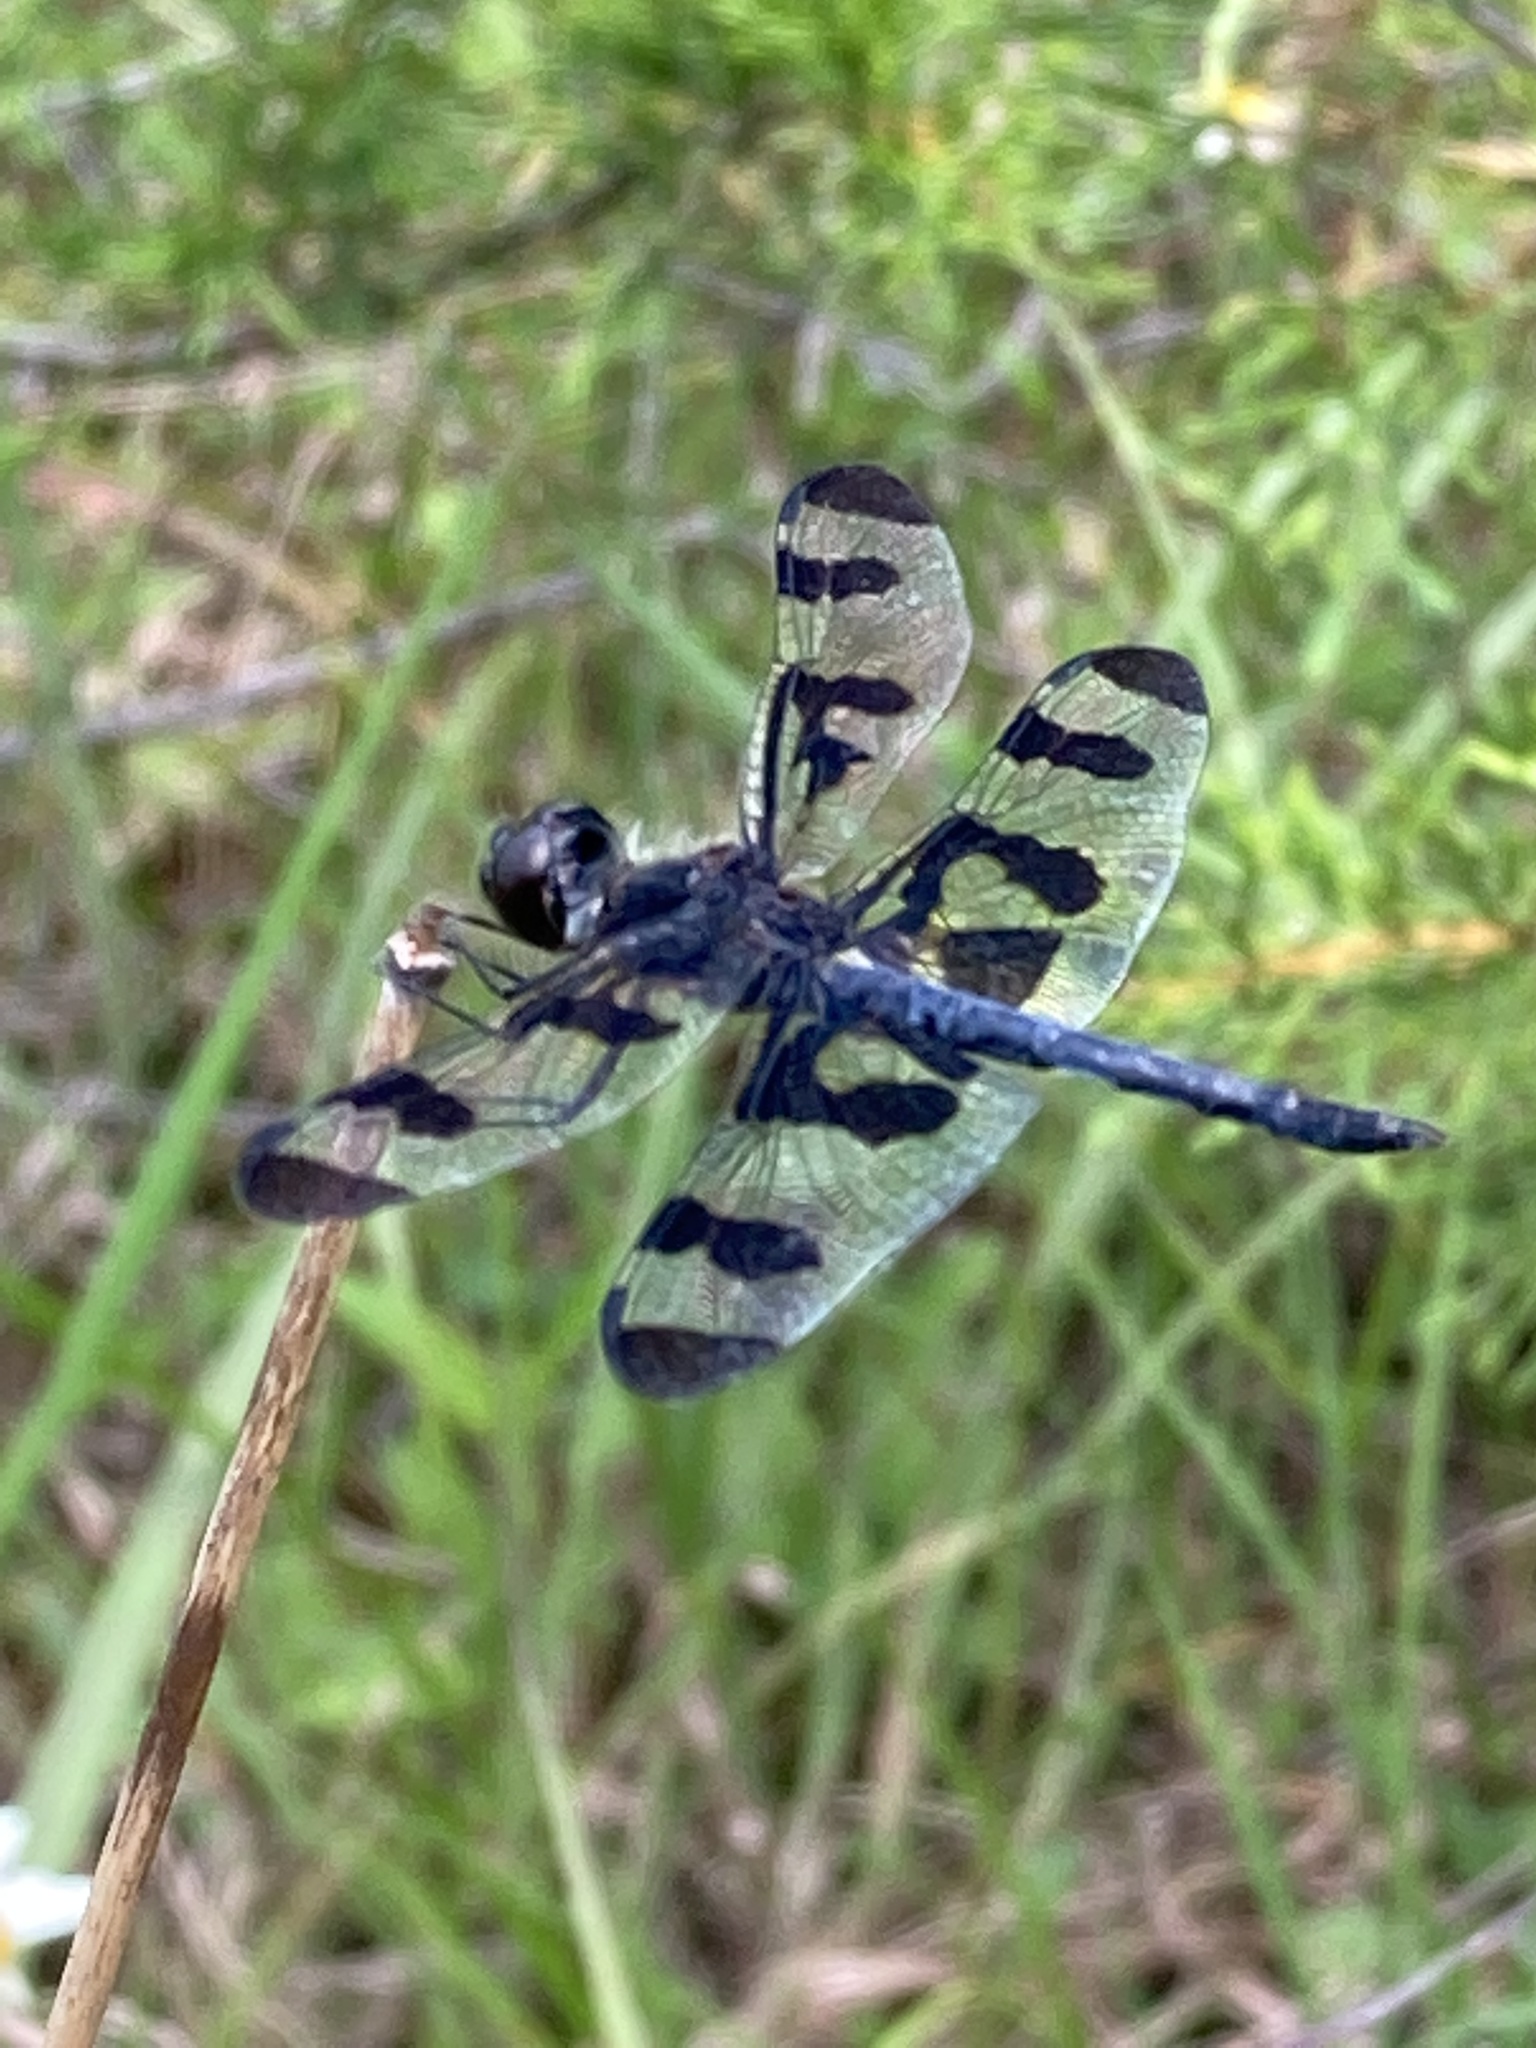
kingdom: Animalia
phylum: Arthropoda
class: Insecta
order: Odonata
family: Libellulidae
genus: Celithemis
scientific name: Celithemis fasciata
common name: Banded pennant
